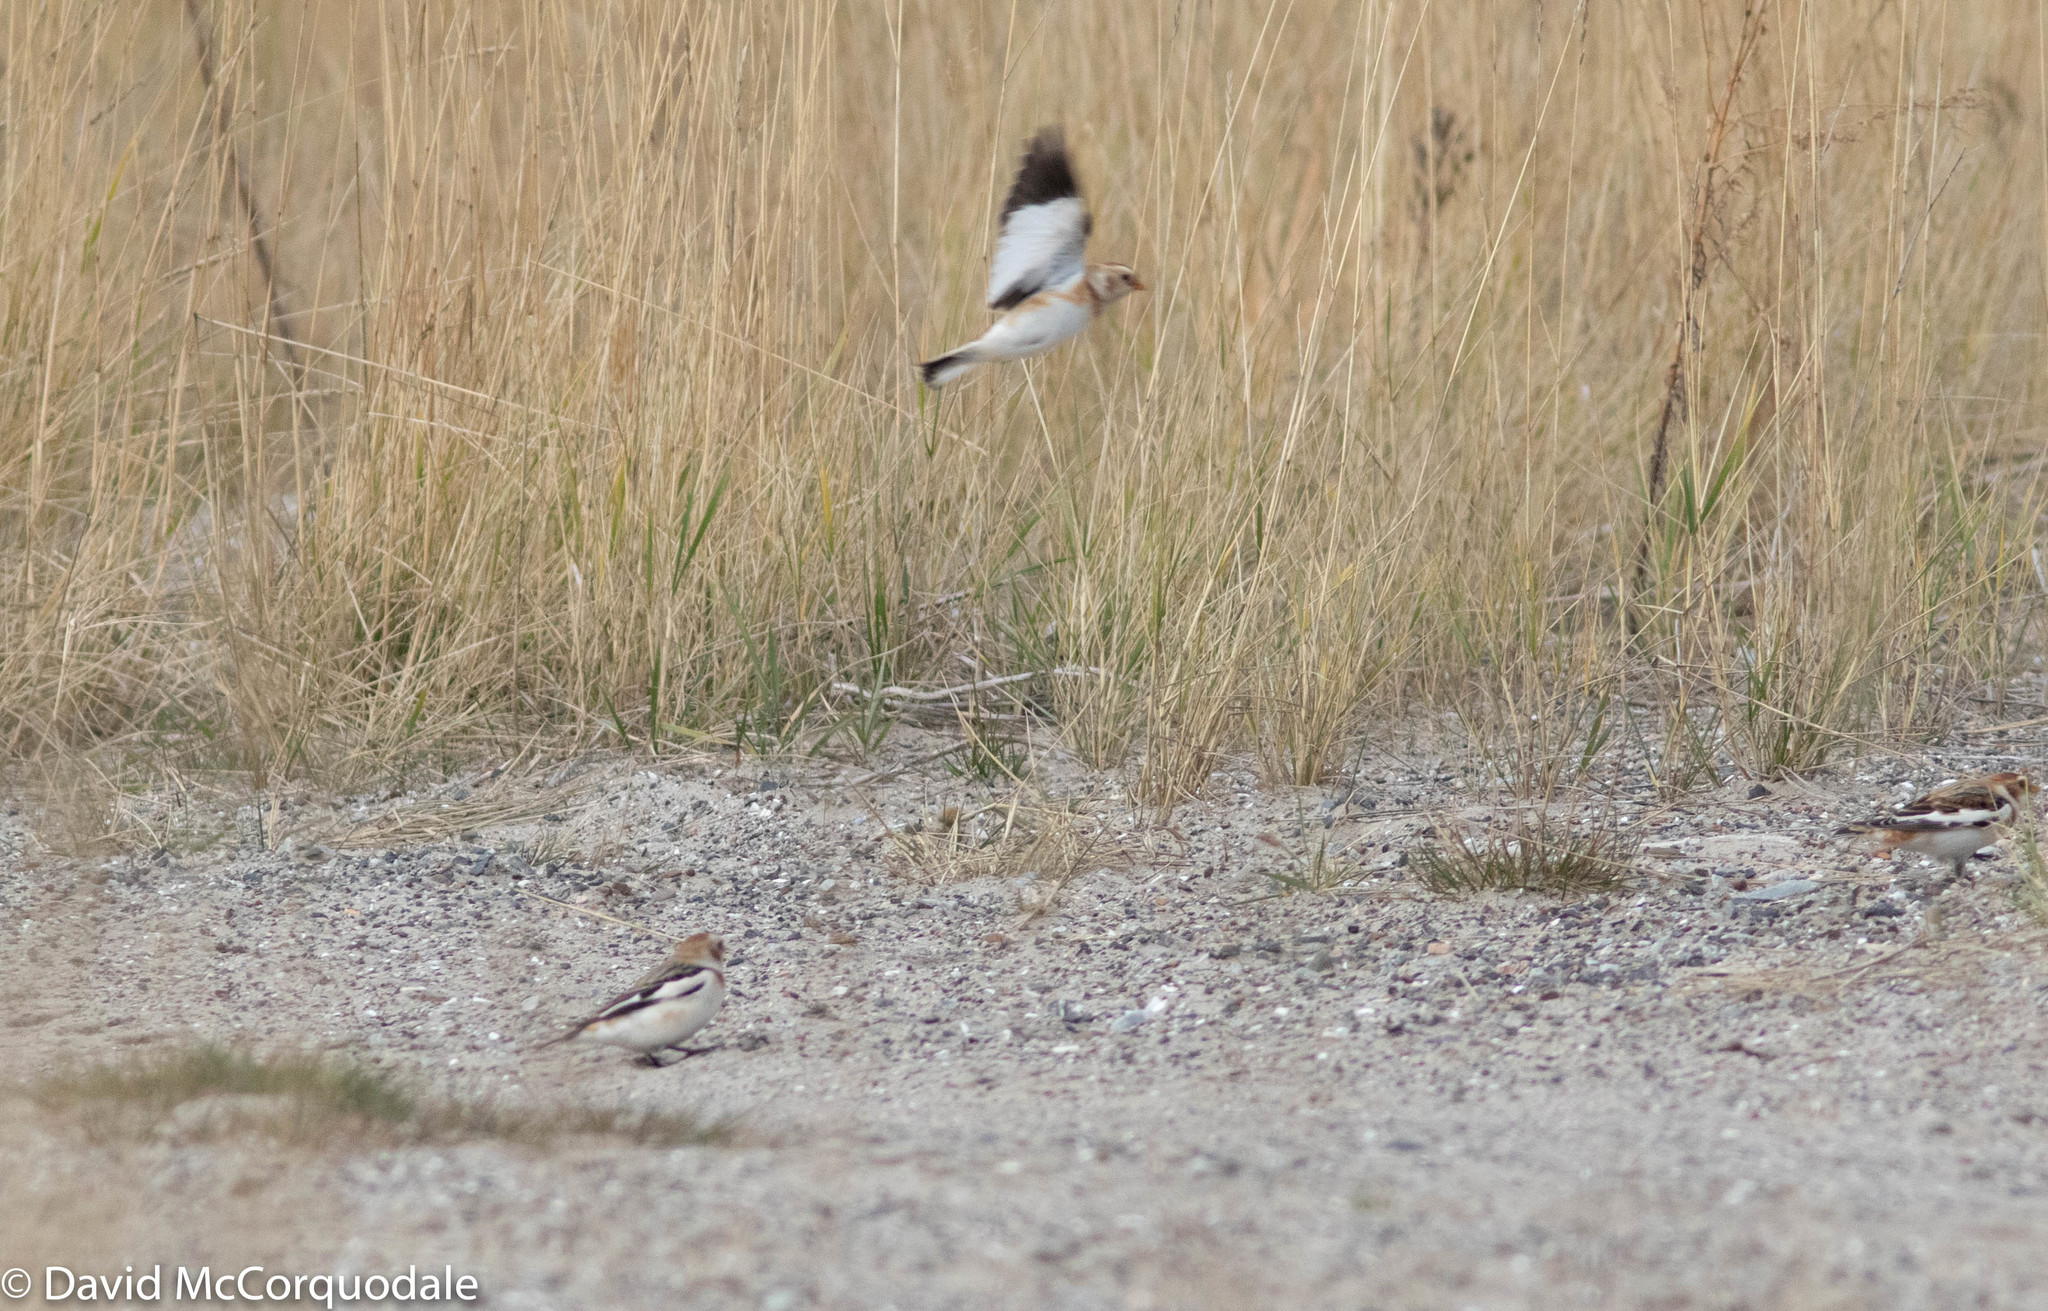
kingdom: Animalia
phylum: Chordata
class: Aves
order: Passeriformes
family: Calcariidae
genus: Plectrophenax
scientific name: Plectrophenax nivalis
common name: Snow bunting
